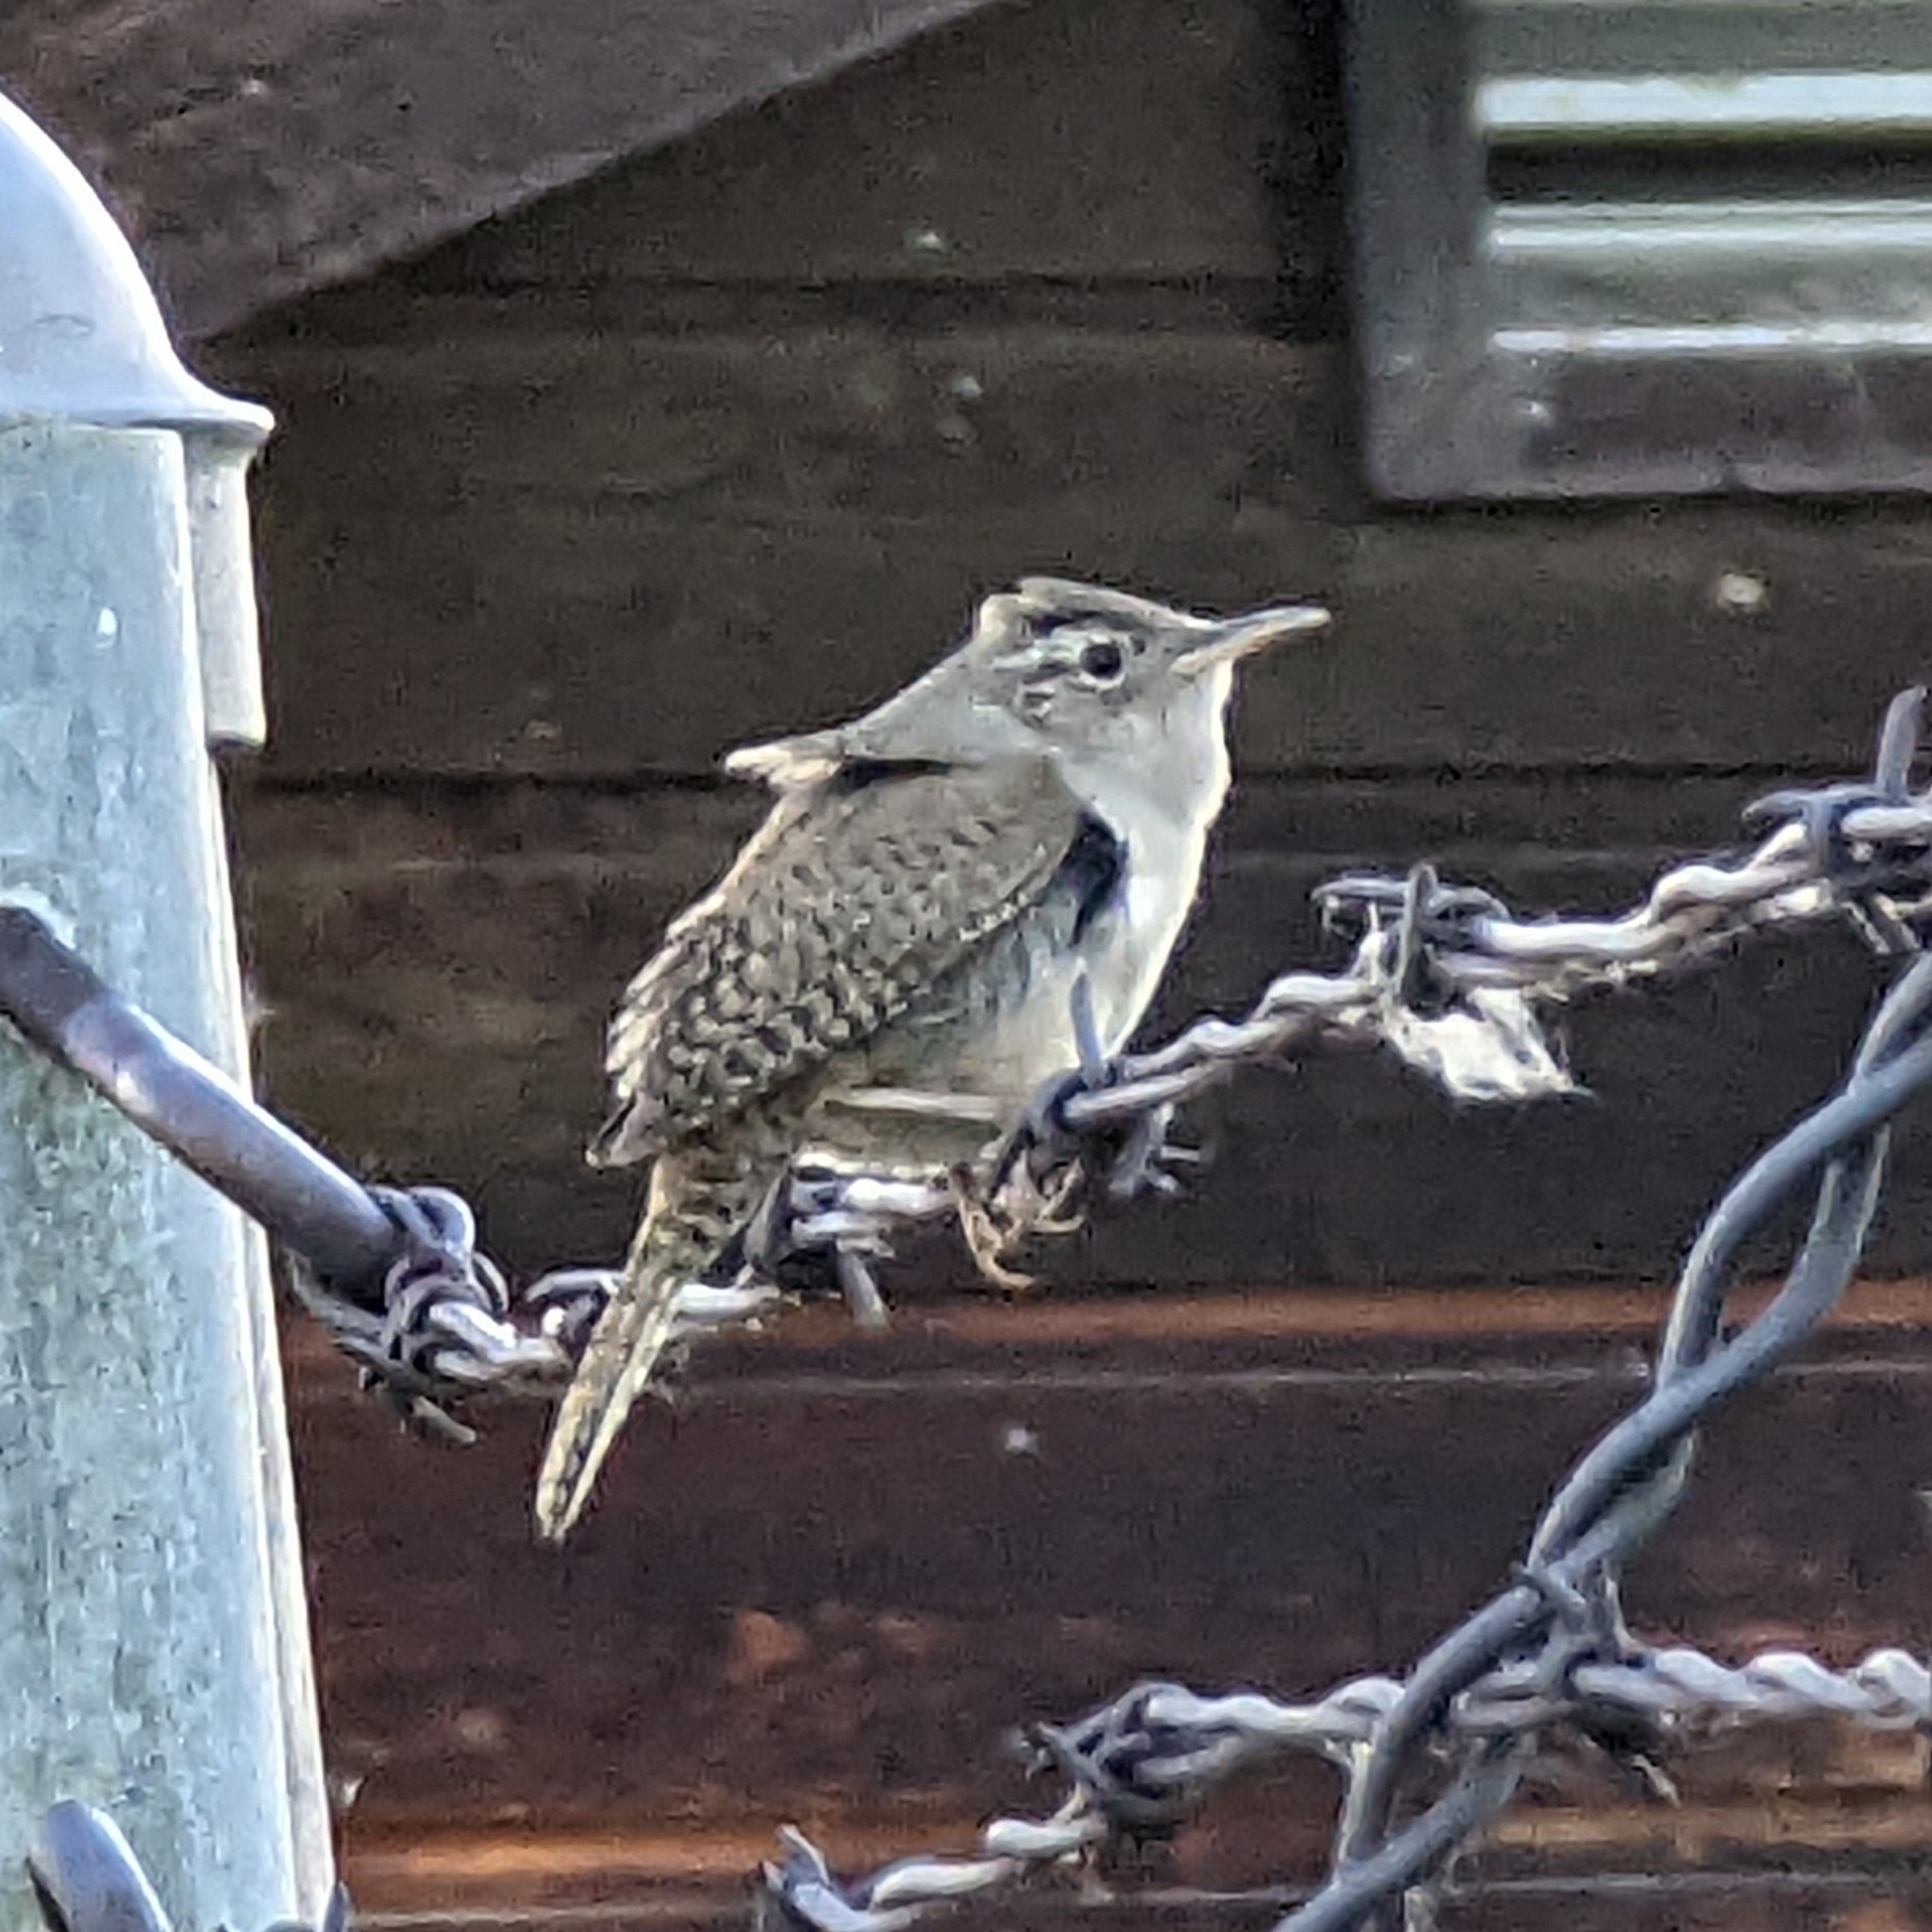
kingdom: Animalia
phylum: Chordata
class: Aves
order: Passeriformes
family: Troglodytidae
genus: Troglodytes
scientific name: Troglodytes aedon
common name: House wren
